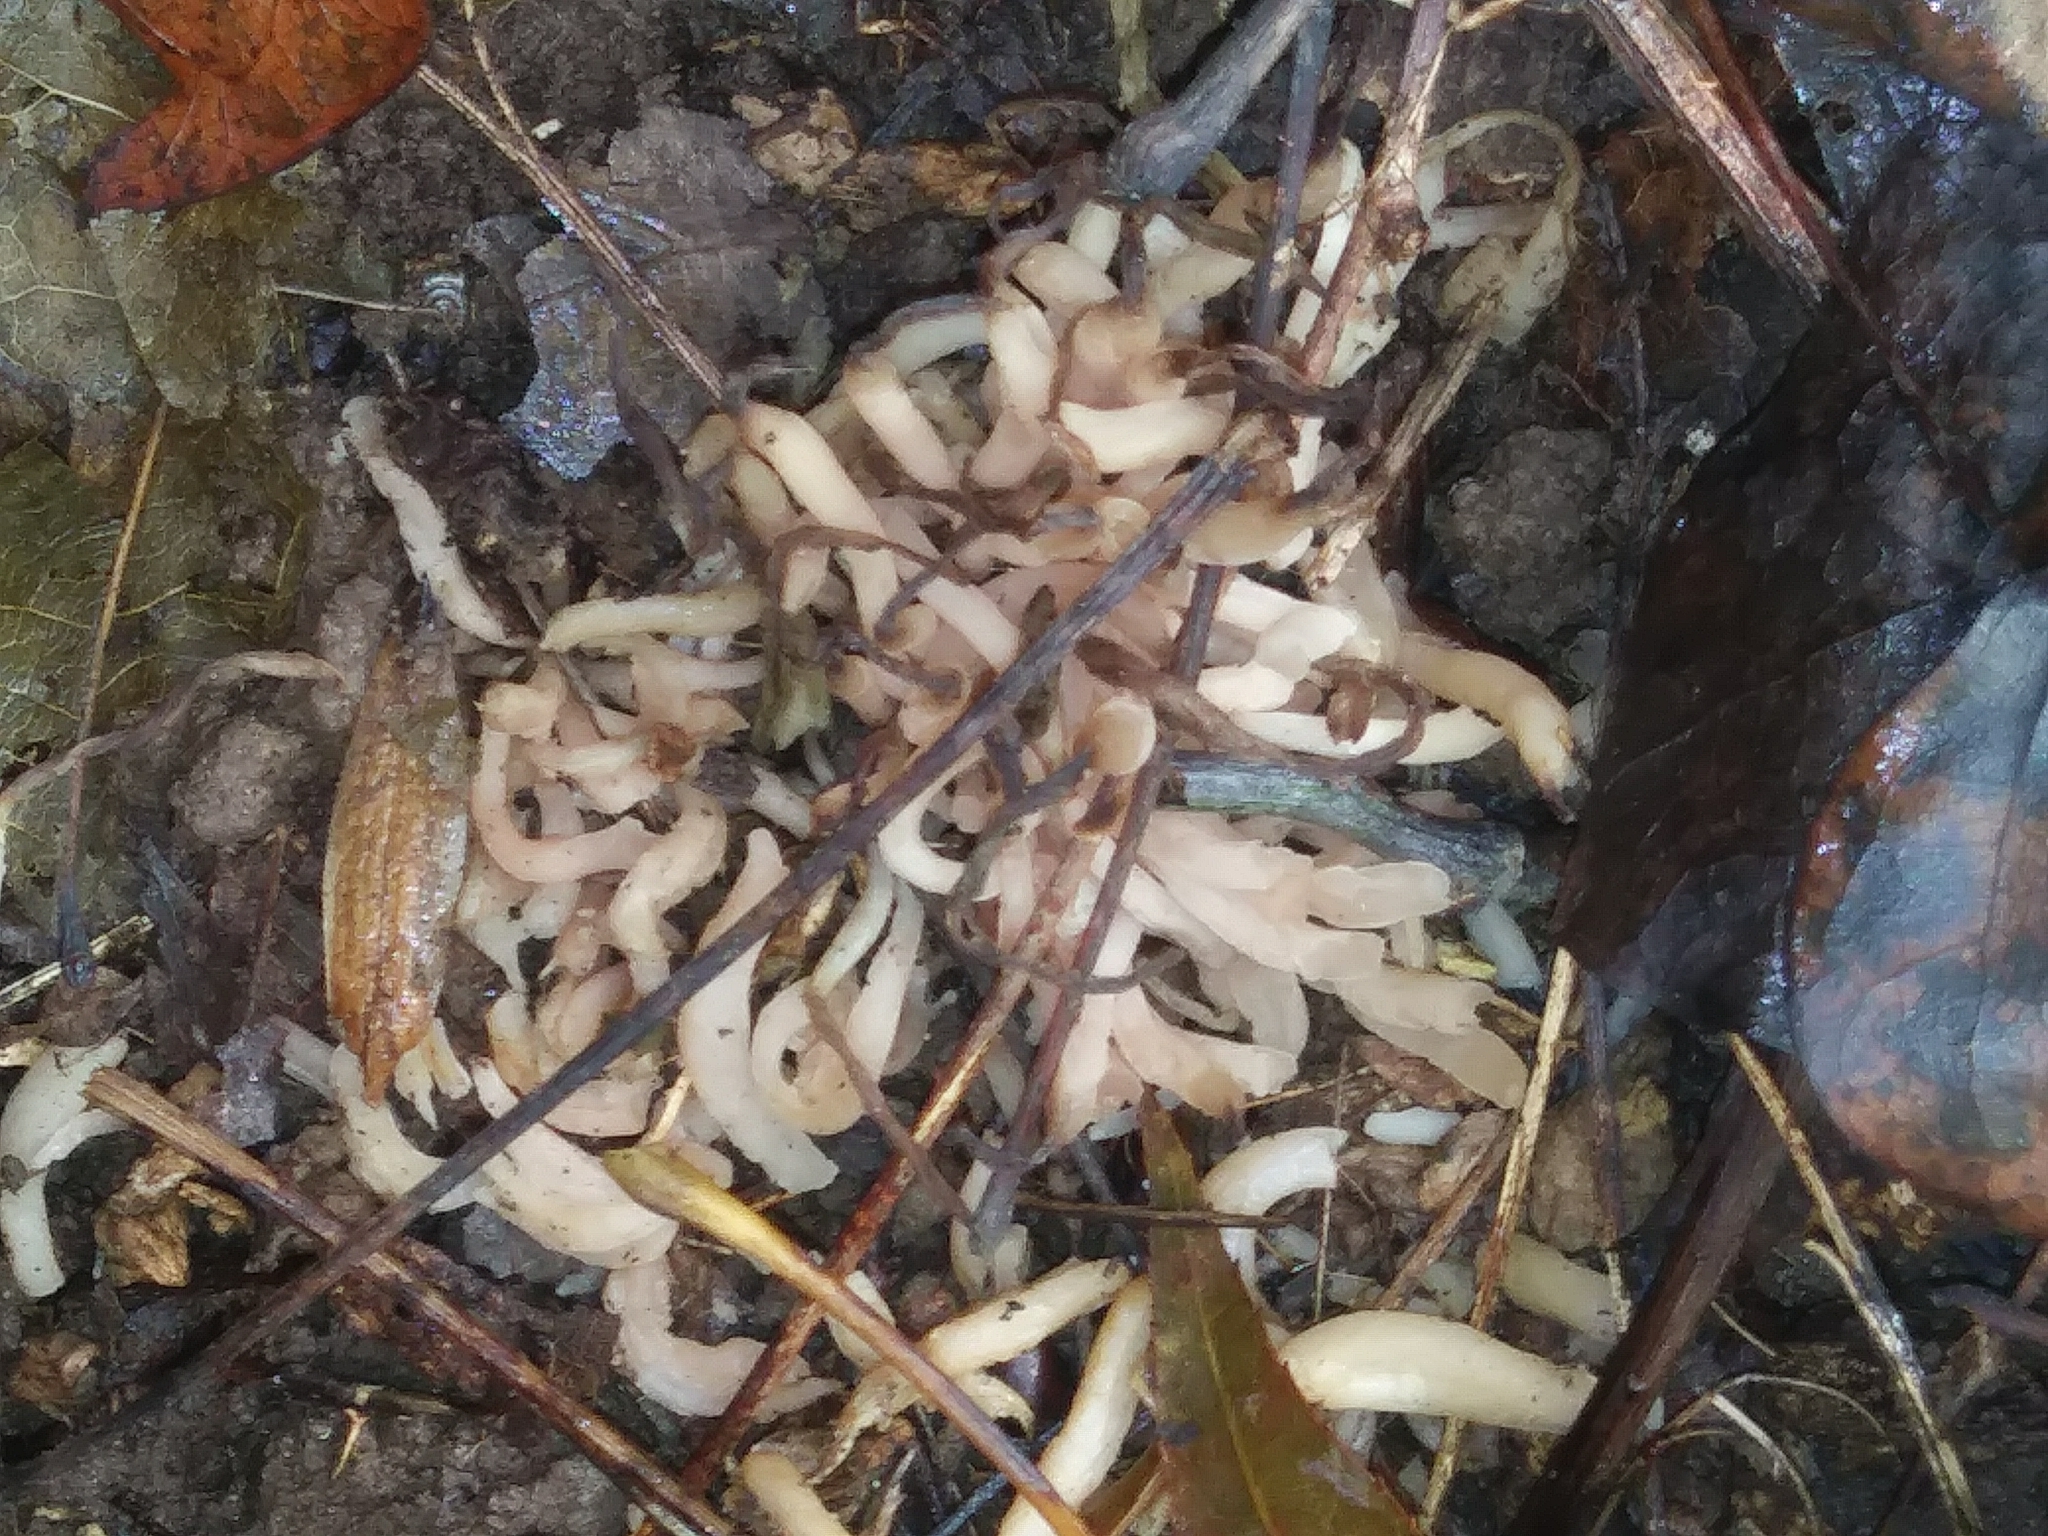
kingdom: Fungi
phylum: Basidiomycota
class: Agaricomycetes
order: Agaricales
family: Clavariaceae
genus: Clavaria
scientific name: Clavaria fumosa
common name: Smoky spindles
